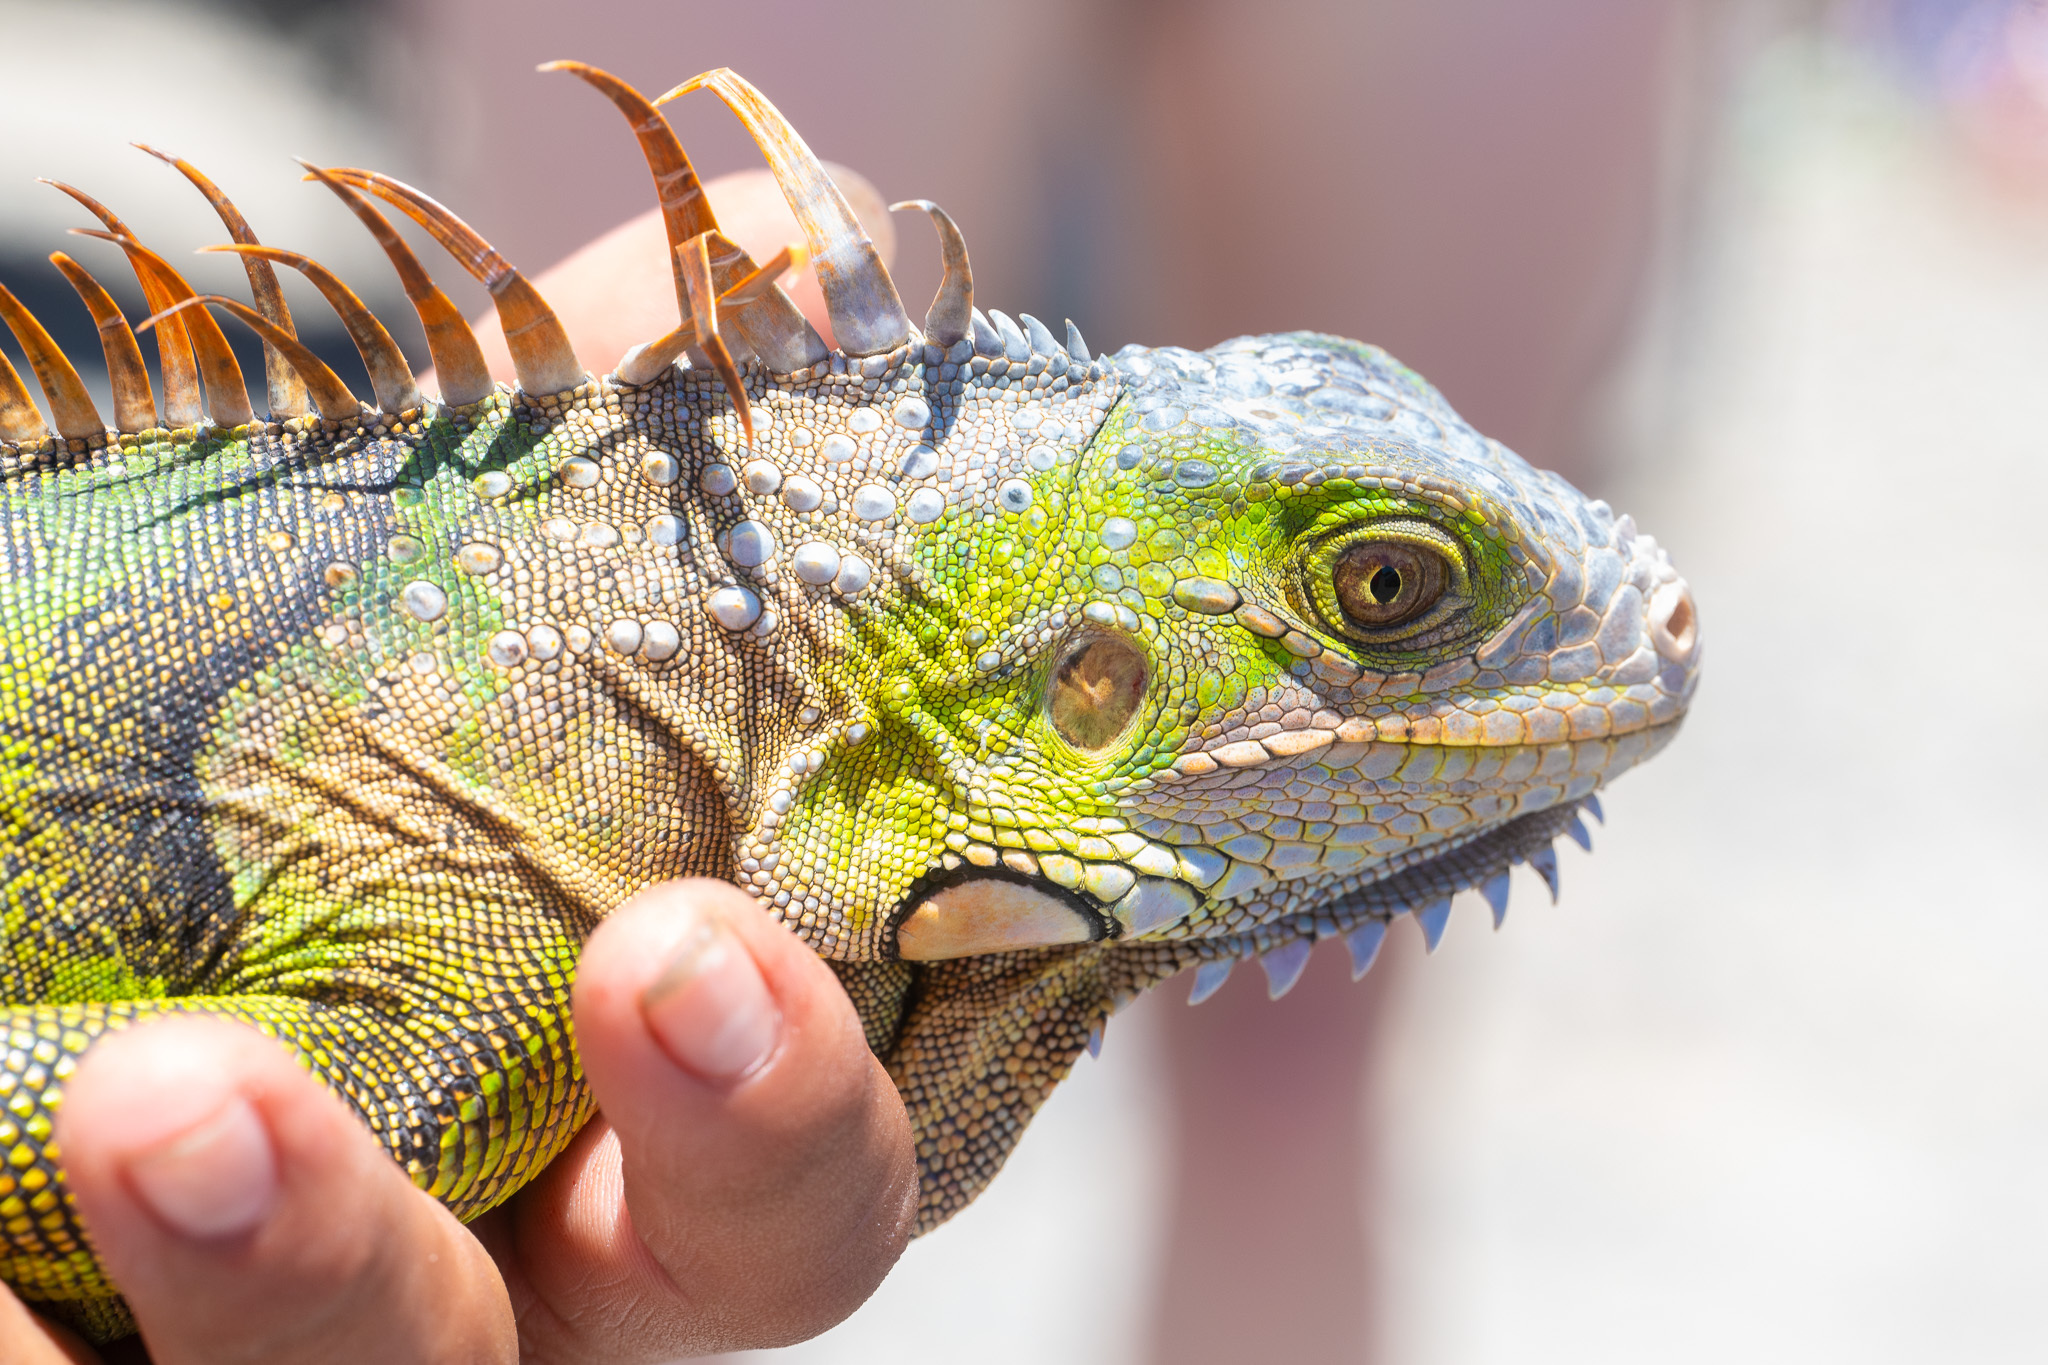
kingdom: Animalia
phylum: Chordata
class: Squamata
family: Iguanidae
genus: Iguana
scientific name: Iguana iguana
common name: Green iguana
